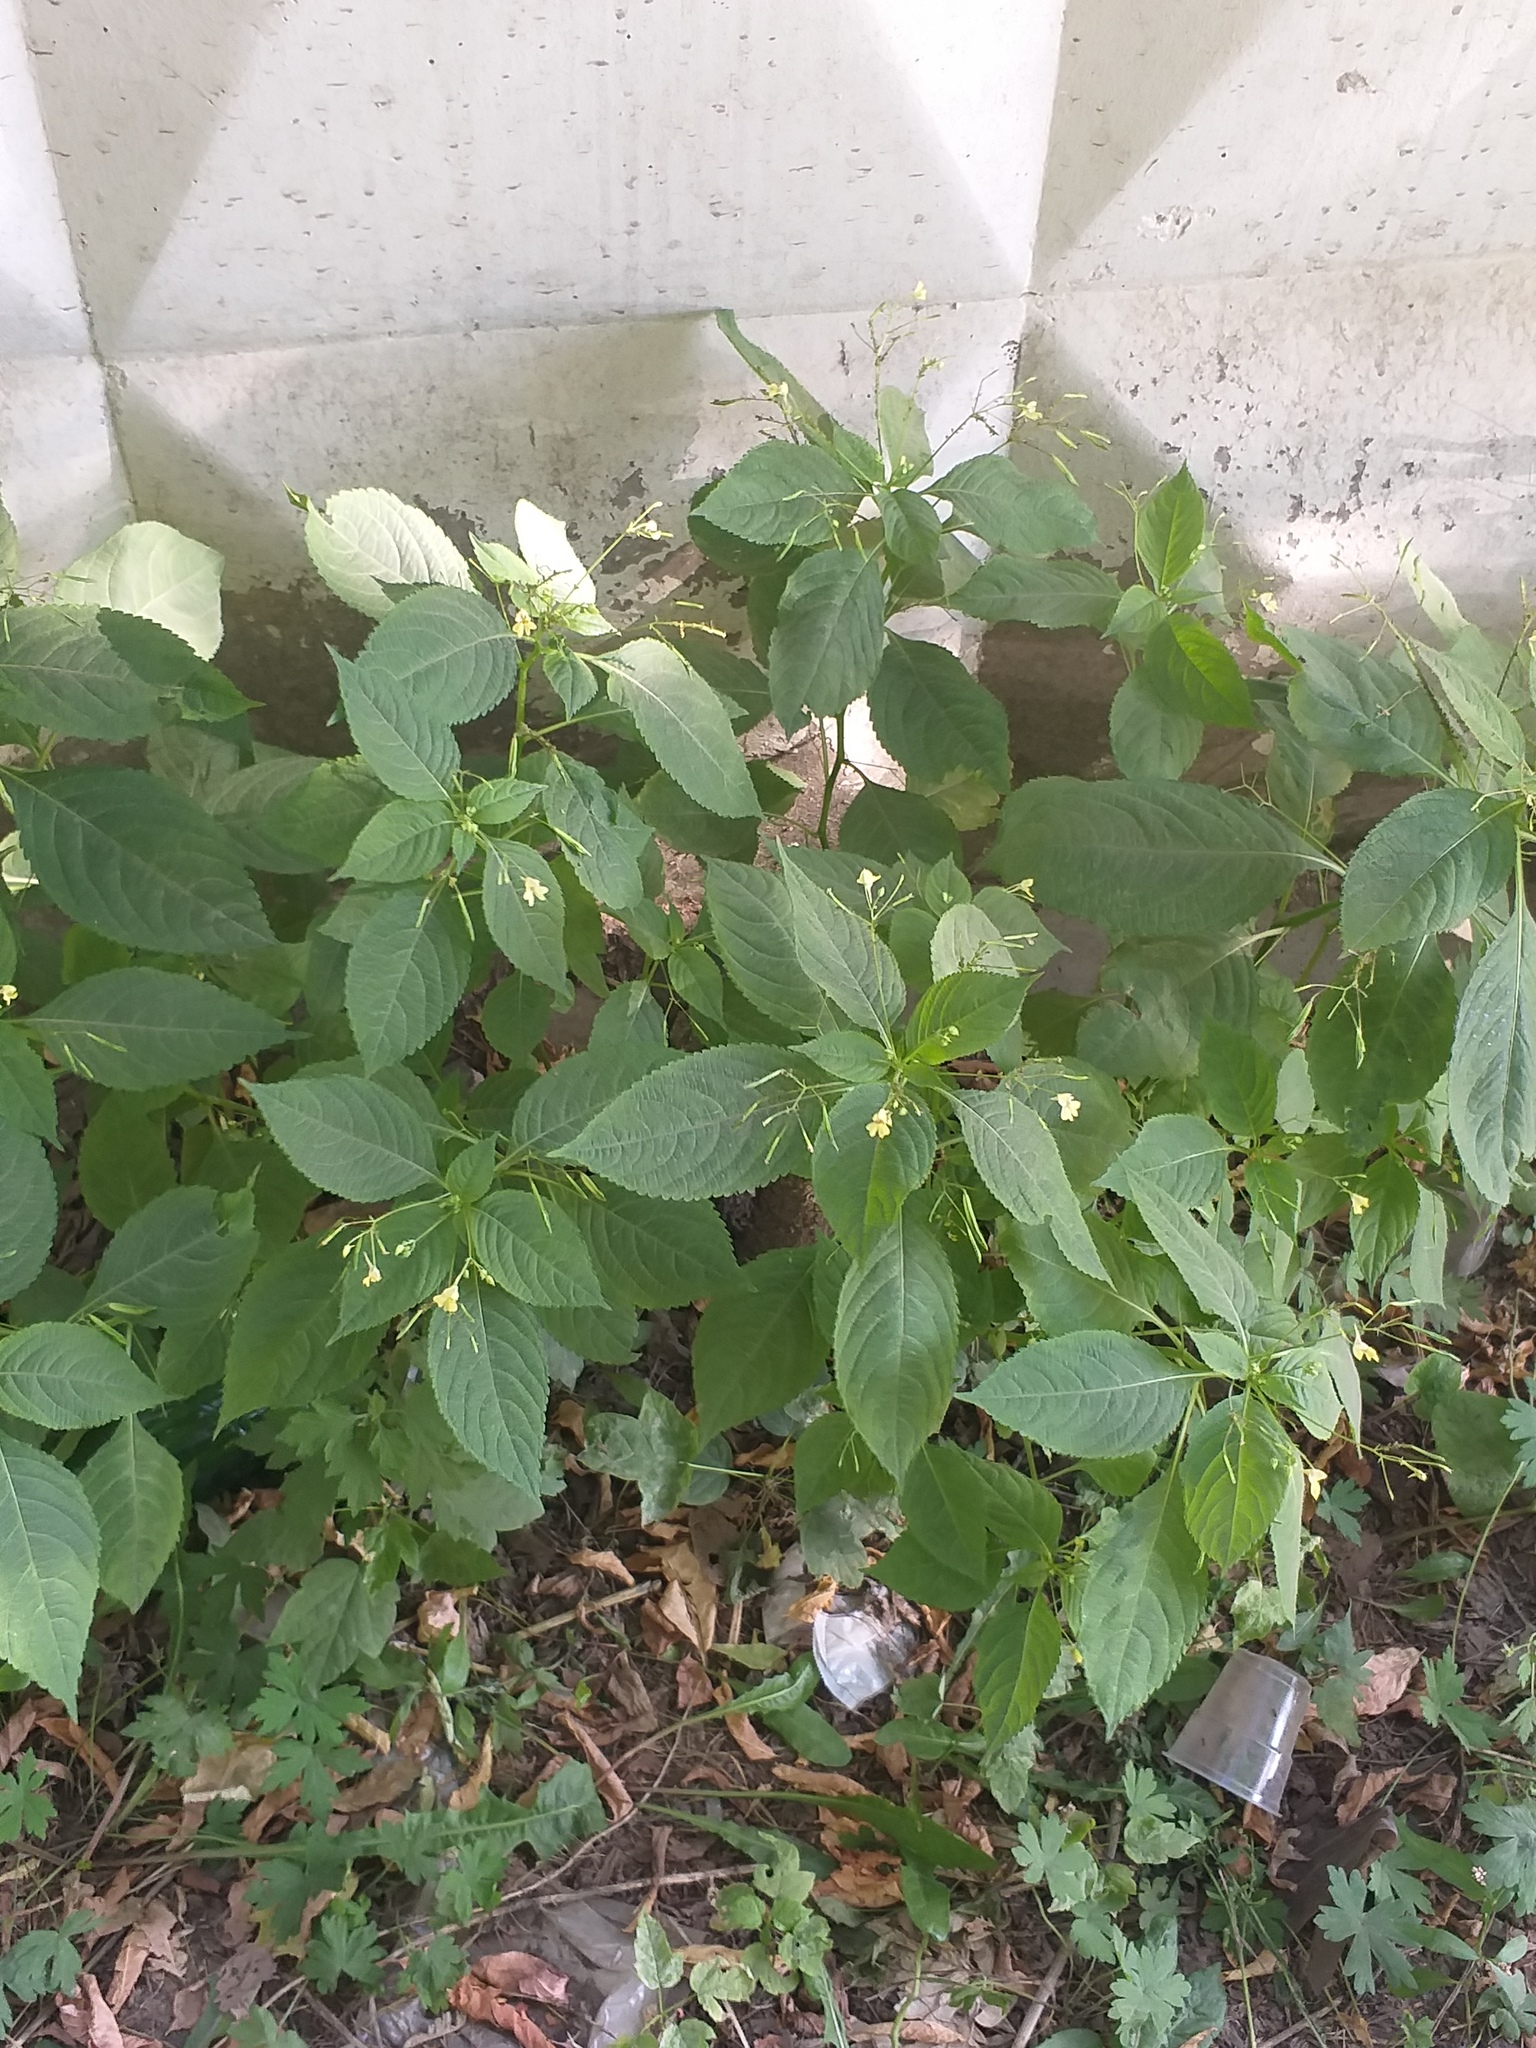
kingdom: Plantae
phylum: Tracheophyta
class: Magnoliopsida
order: Ericales
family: Balsaminaceae
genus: Impatiens
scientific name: Impatiens parviflora
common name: Small balsam
